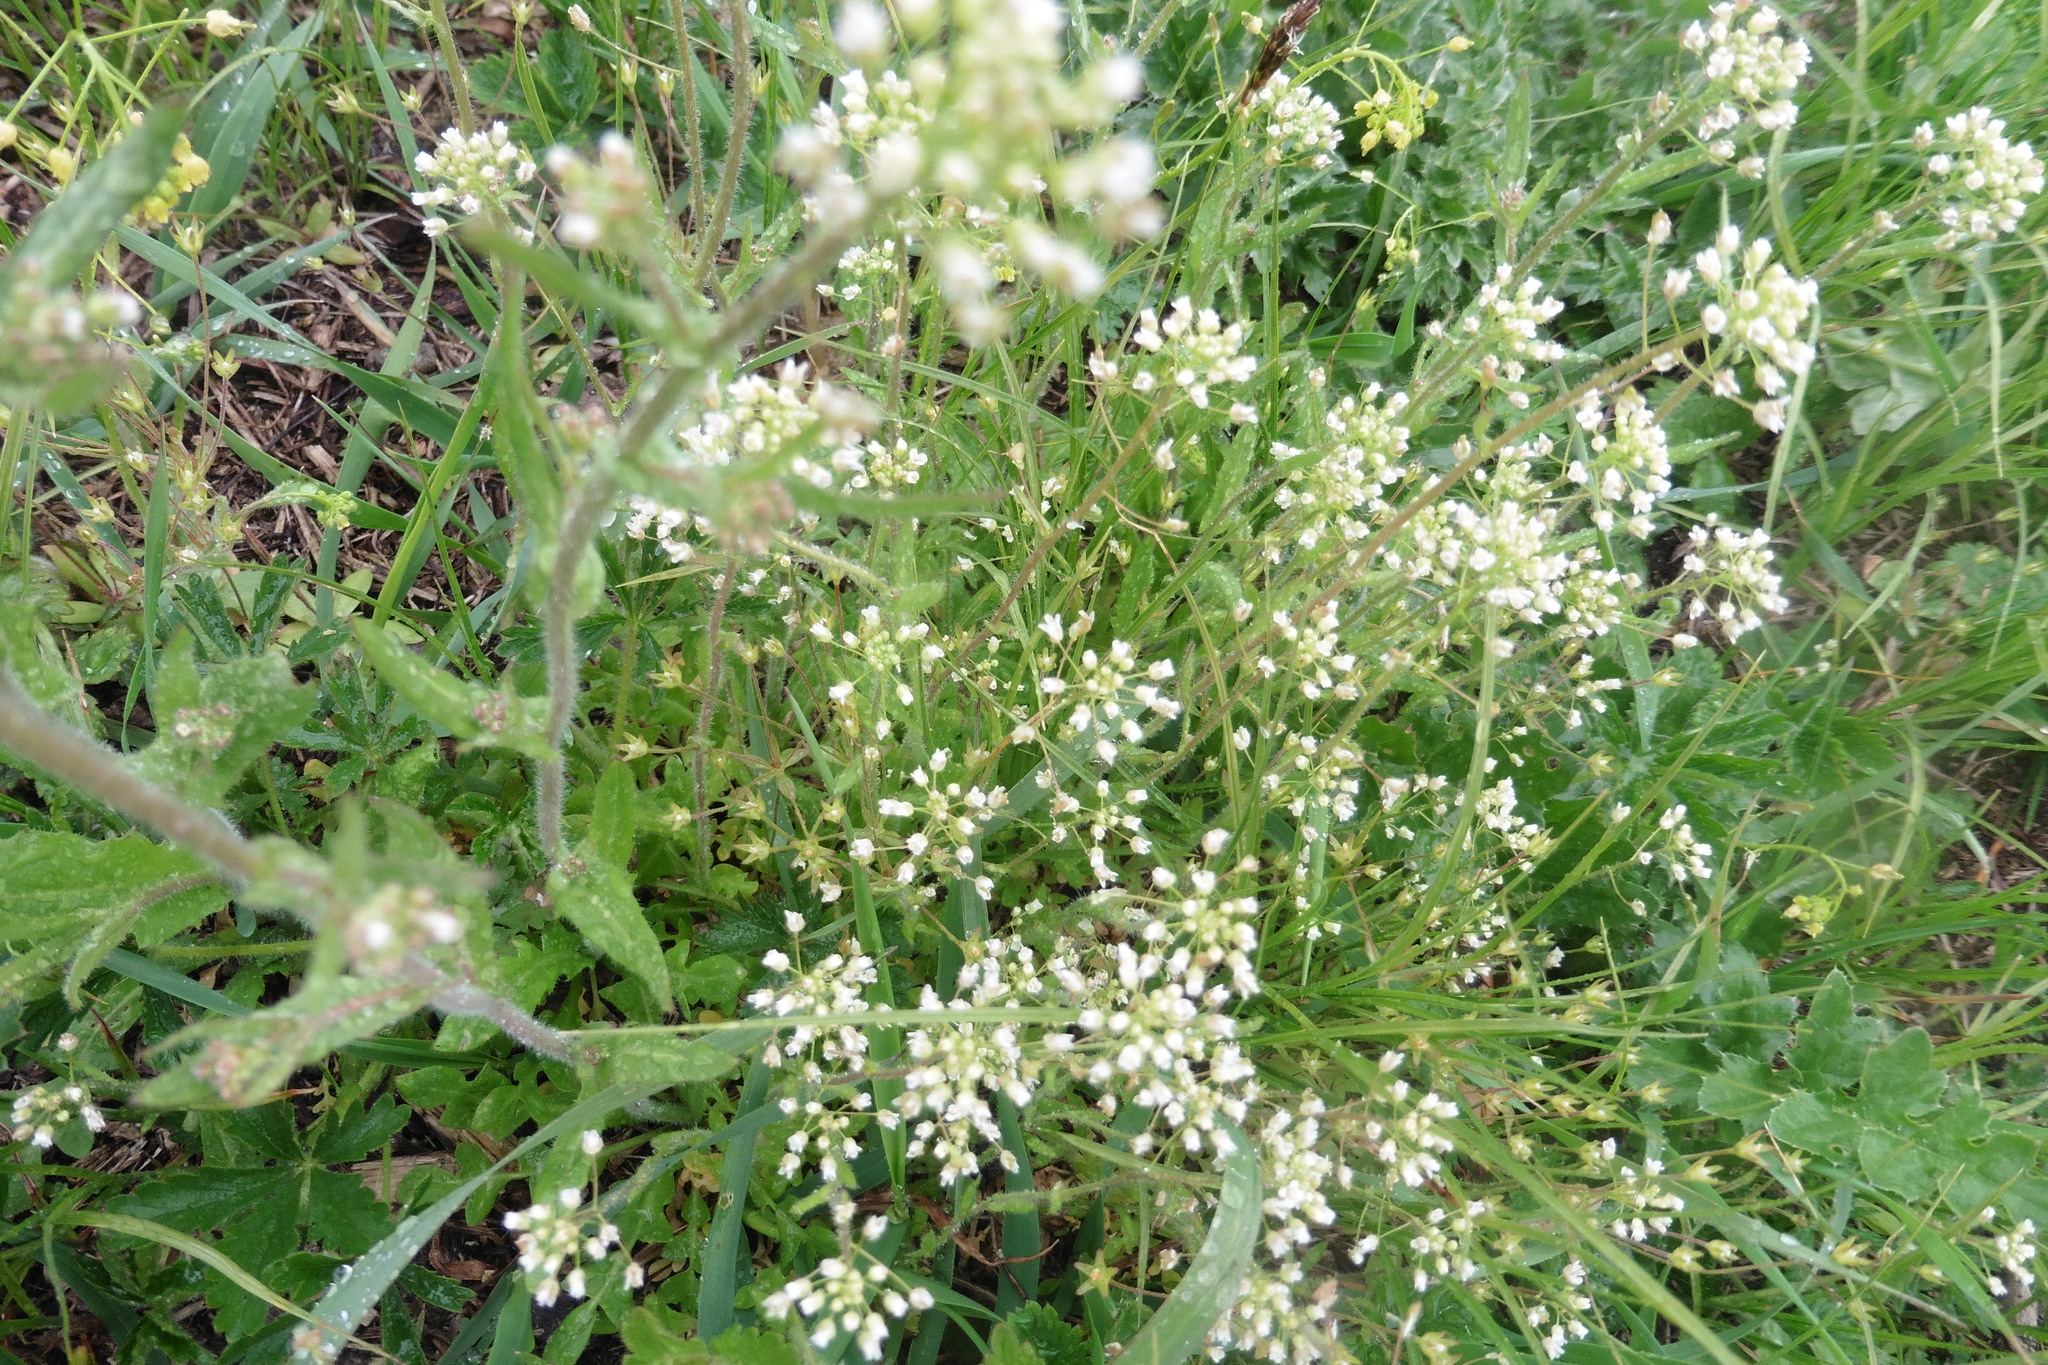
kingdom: Plantae
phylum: Tracheophyta
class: Magnoliopsida
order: Brassicales
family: Brassicaceae
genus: Capsella
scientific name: Capsella bursa-pastoris
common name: Shepherd's purse
